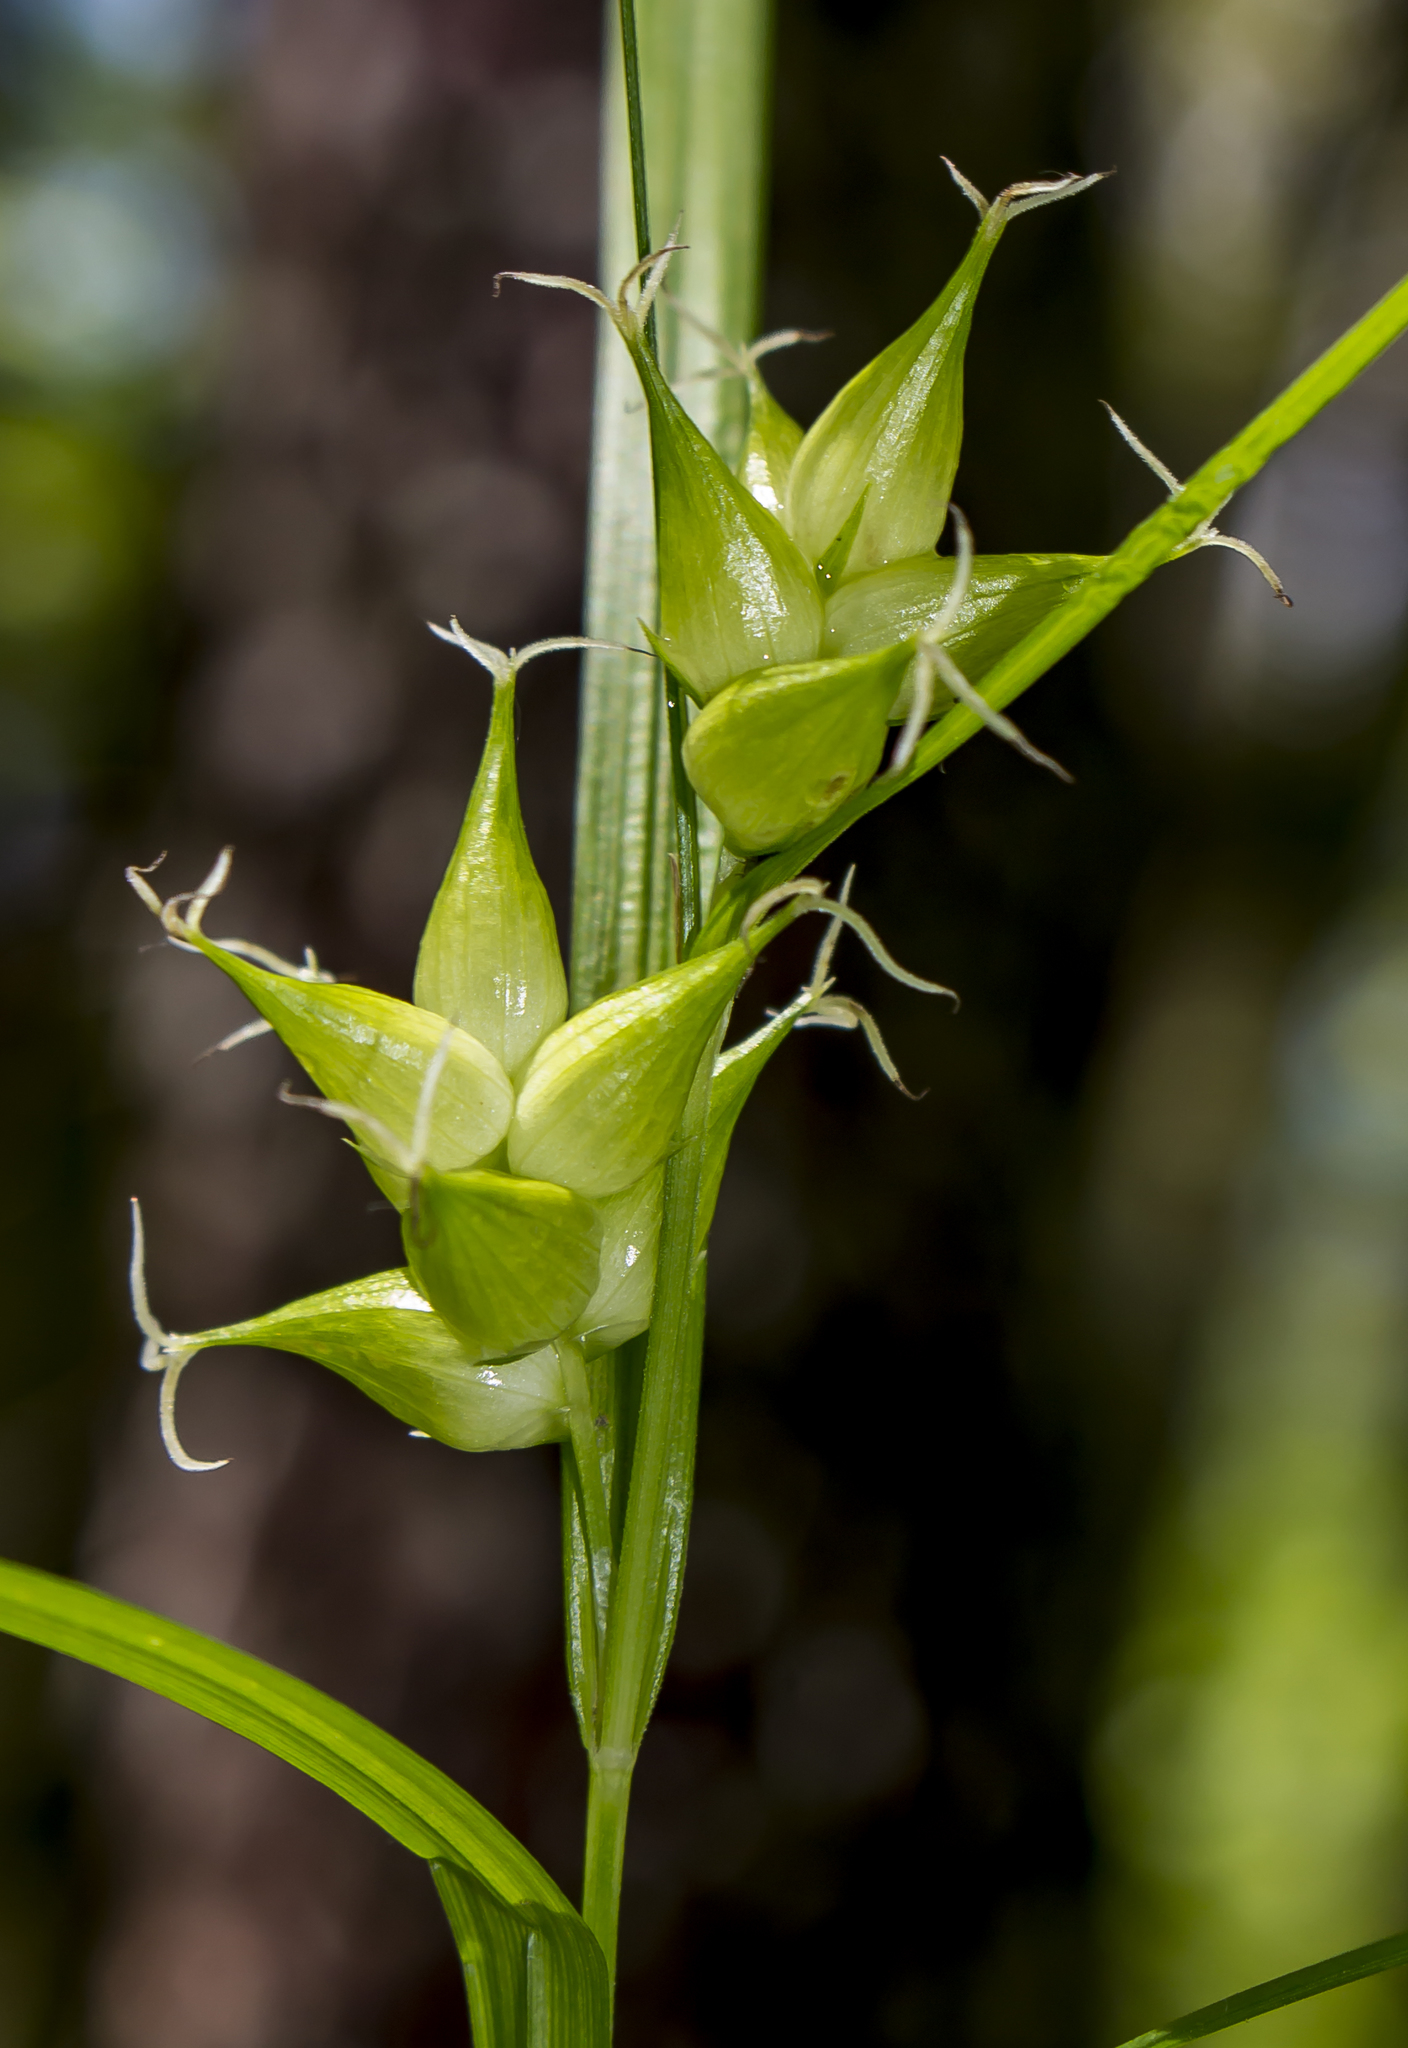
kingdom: Plantae
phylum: Tracheophyta
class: Liliopsida
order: Poales
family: Cyperaceae
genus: Carex
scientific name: Carex intumescens
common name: Greater bladder sedge
